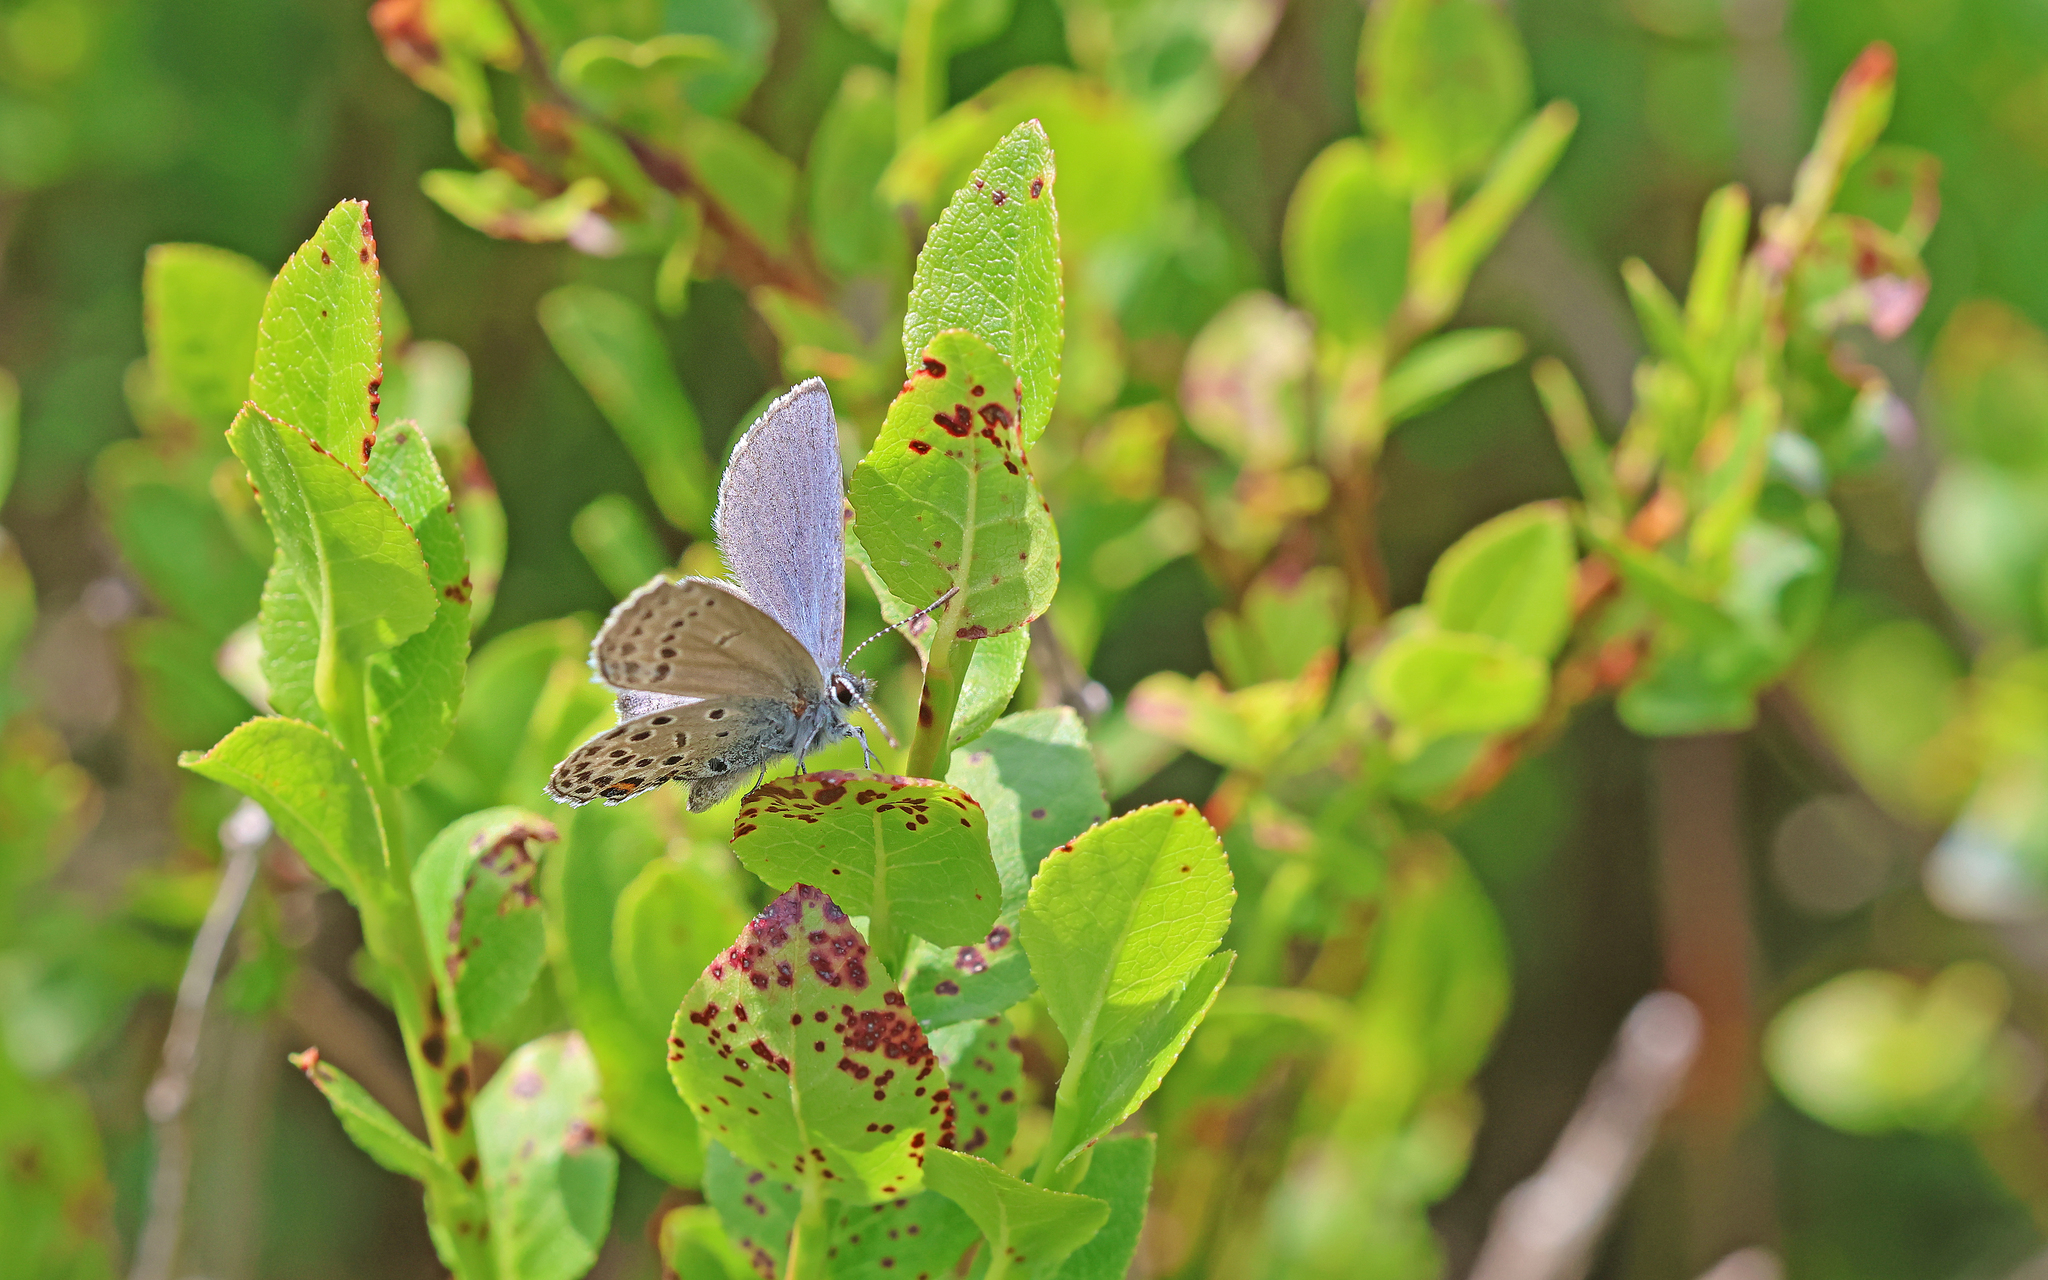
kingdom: Animalia
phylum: Arthropoda
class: Insecta
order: Lepidoptera
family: Lycaenidae
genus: Vacciniina
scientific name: Vacciniina optilete
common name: Cranberry blue
